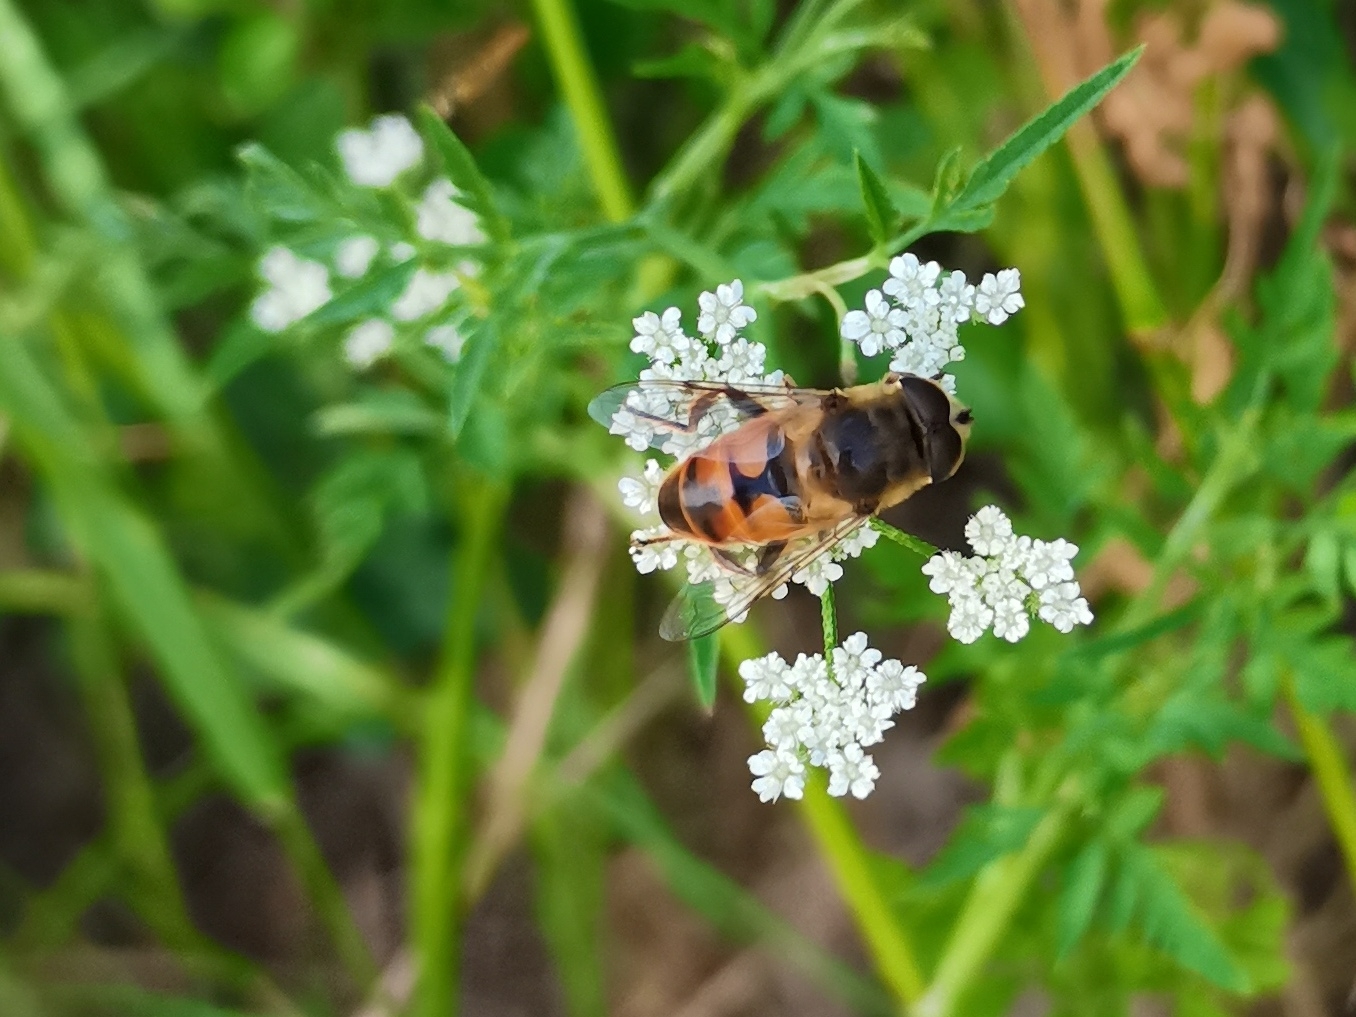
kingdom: Animalia
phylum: Arthropoda
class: Insecta
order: Diptera
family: Syrphidae
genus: Eristalis
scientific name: Eristalis tenax
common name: Drone fly
